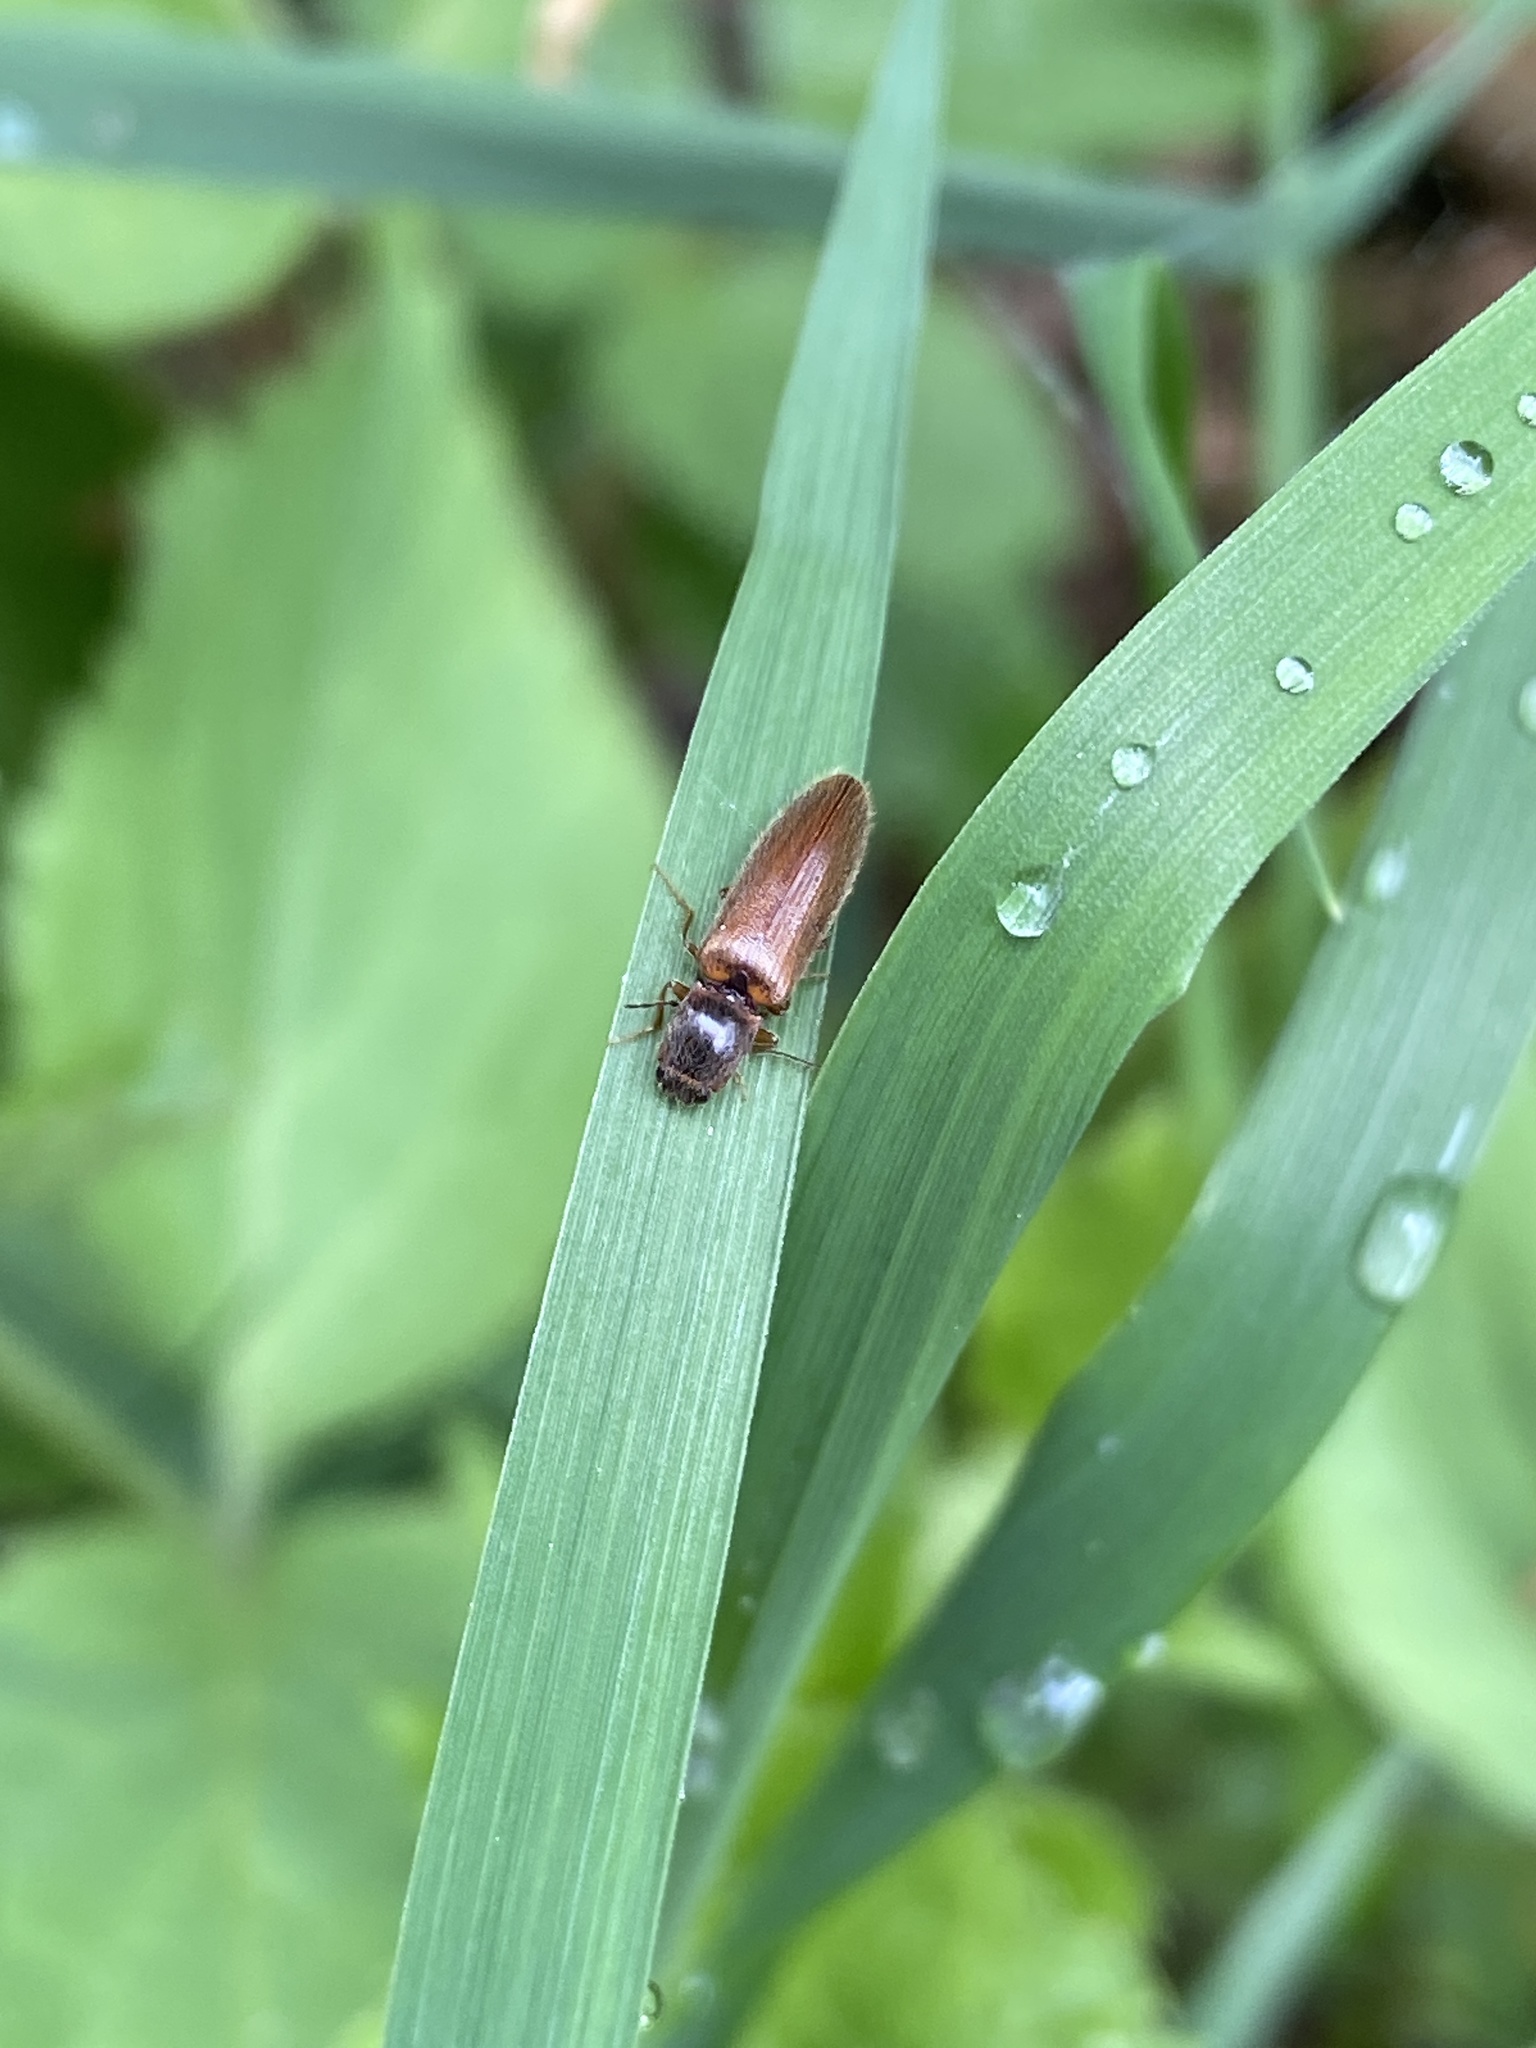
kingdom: Animalia
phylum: Arthropoda
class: Insecta
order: Coleoptera
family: Elateridae
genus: Athous
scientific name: Athous subfuscus
